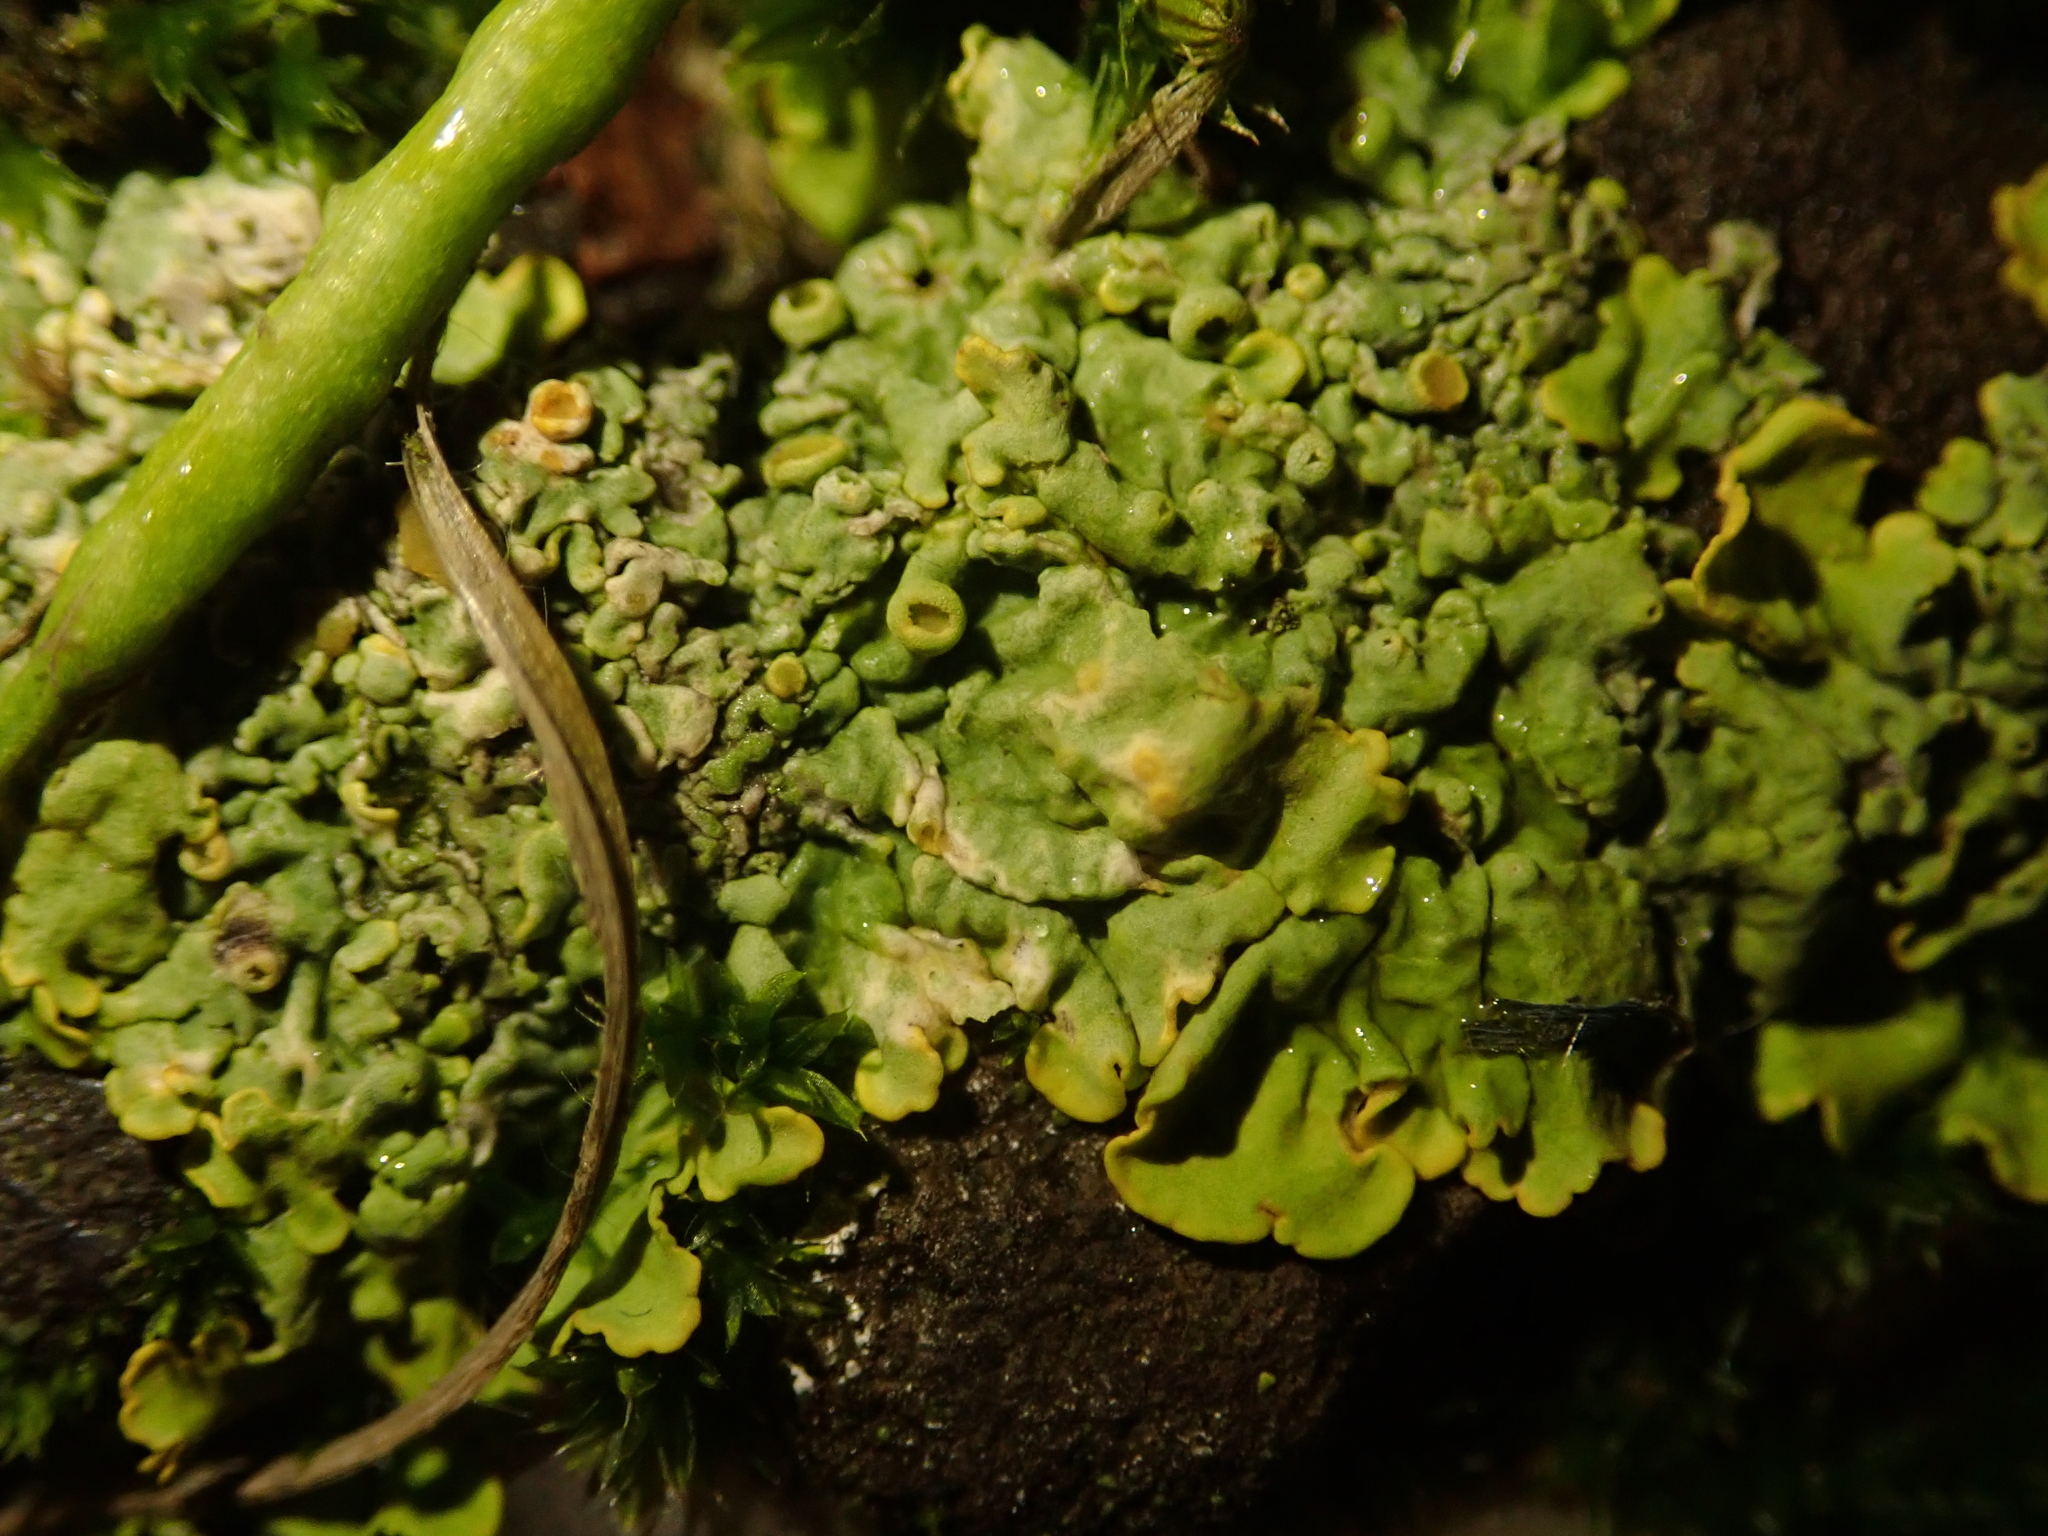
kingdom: Fungi
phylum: Ascomycota
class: Lecanoromycetes
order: Teloschistales
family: Teloschistaceae
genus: Xanthoria
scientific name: Xanthoria parietina
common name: Common orange lichen
